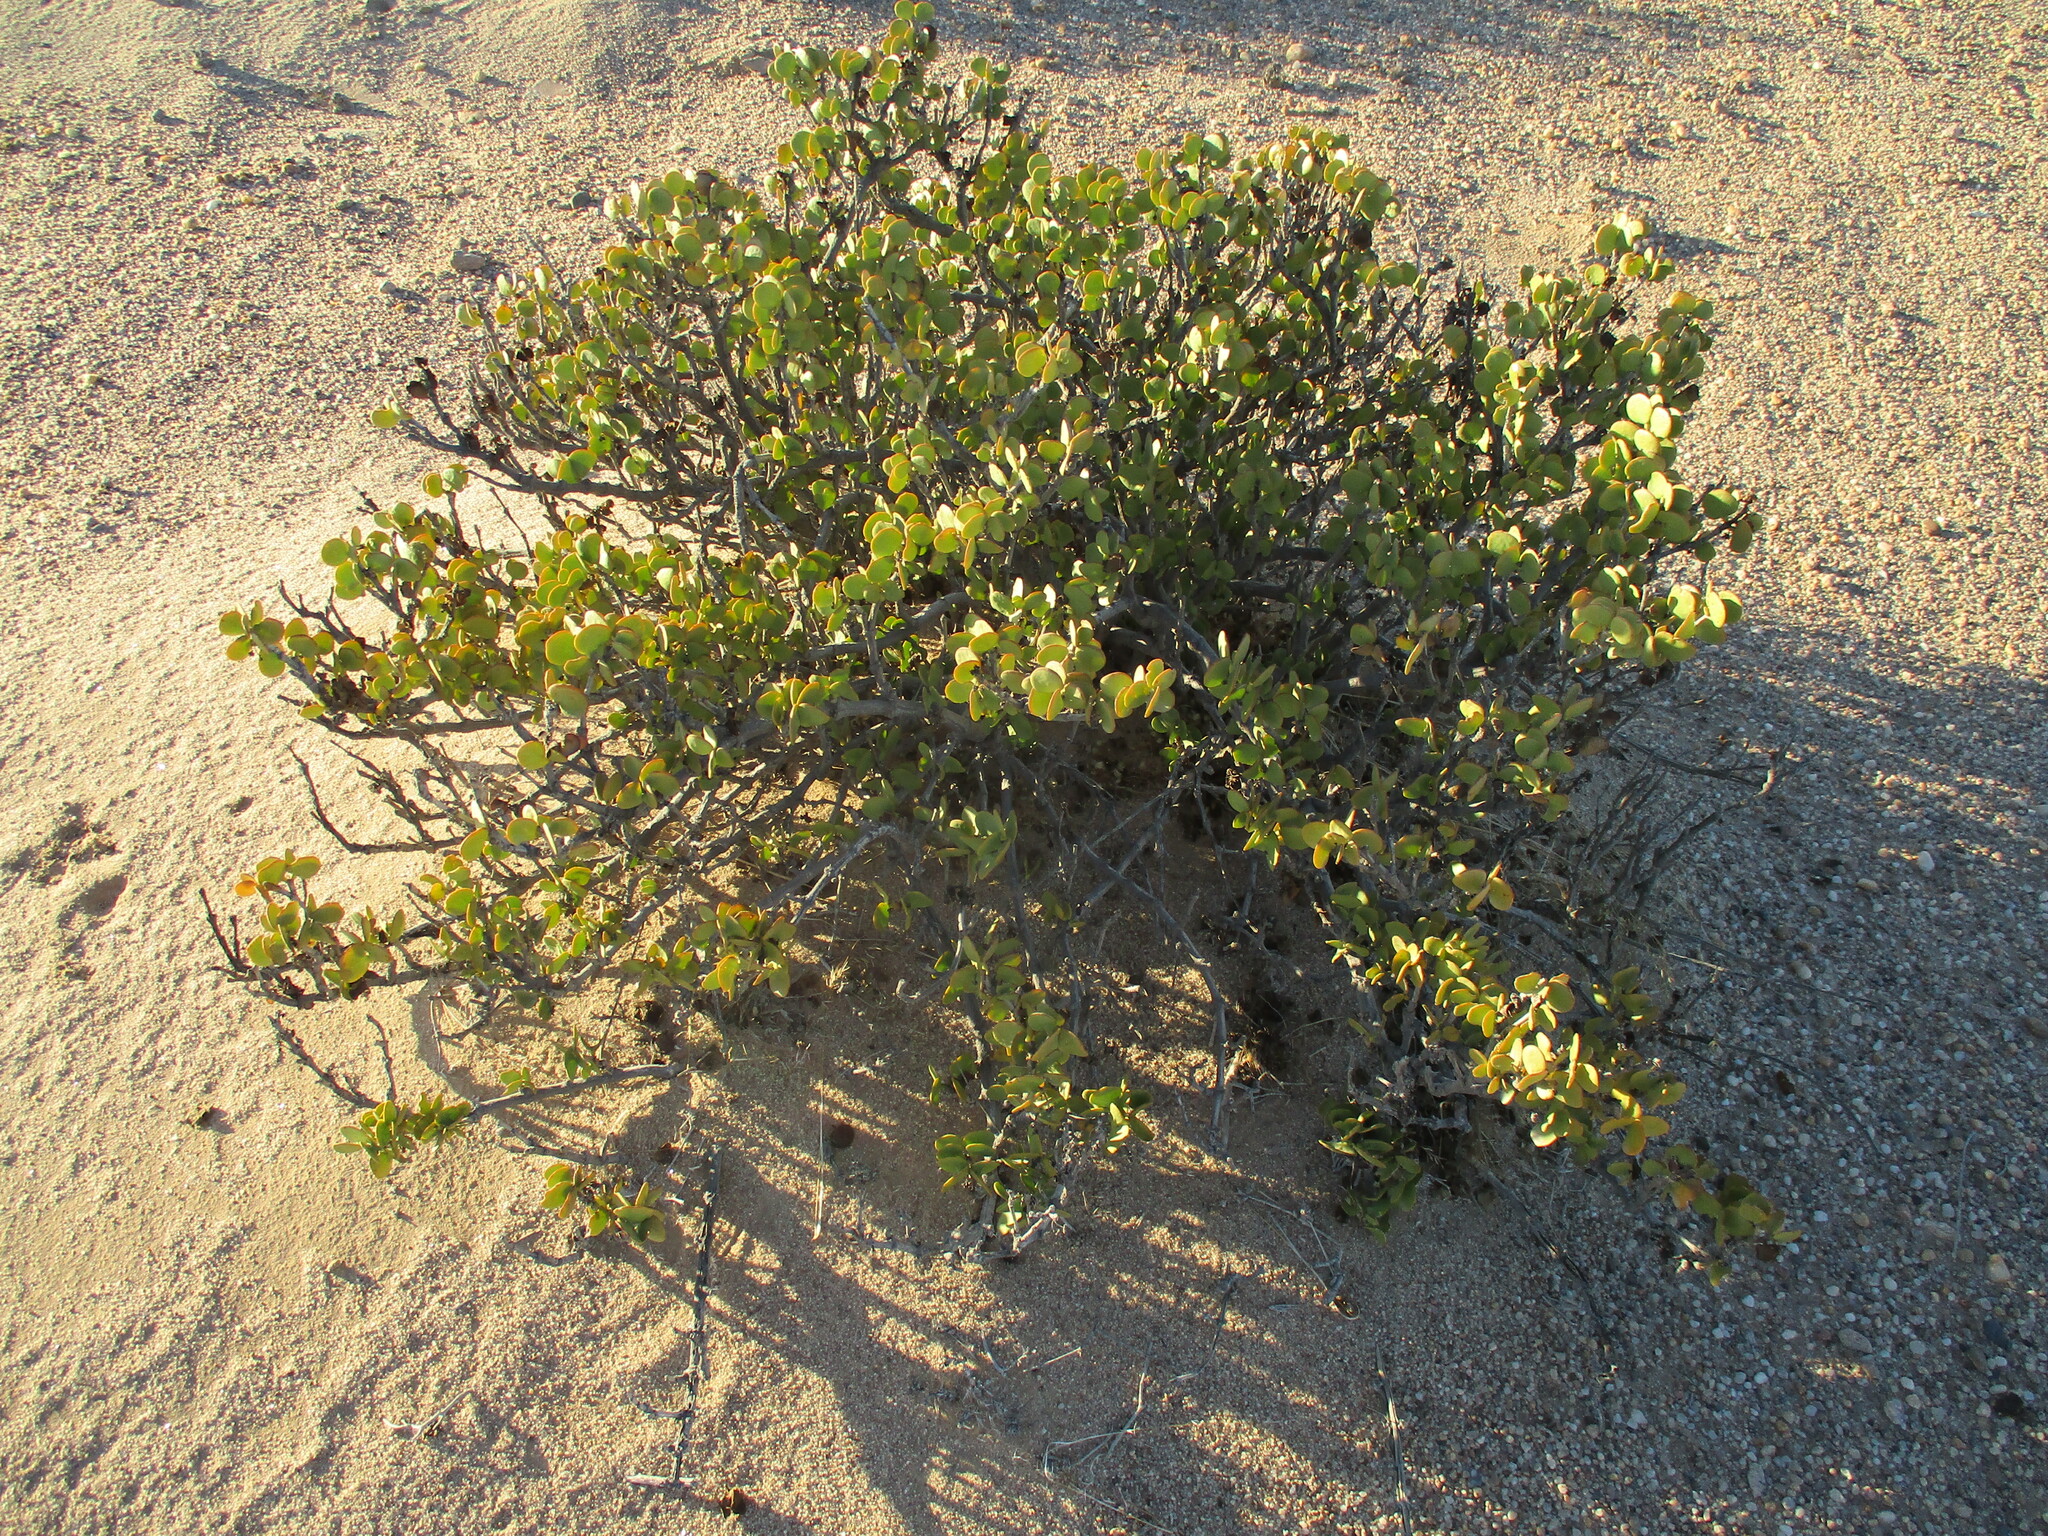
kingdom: Plantae
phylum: Tracheophyta
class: Magnoliopsida
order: Zygophyllales
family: Zygophyllaceae
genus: Tetraena
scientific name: Tetraena stapfii
